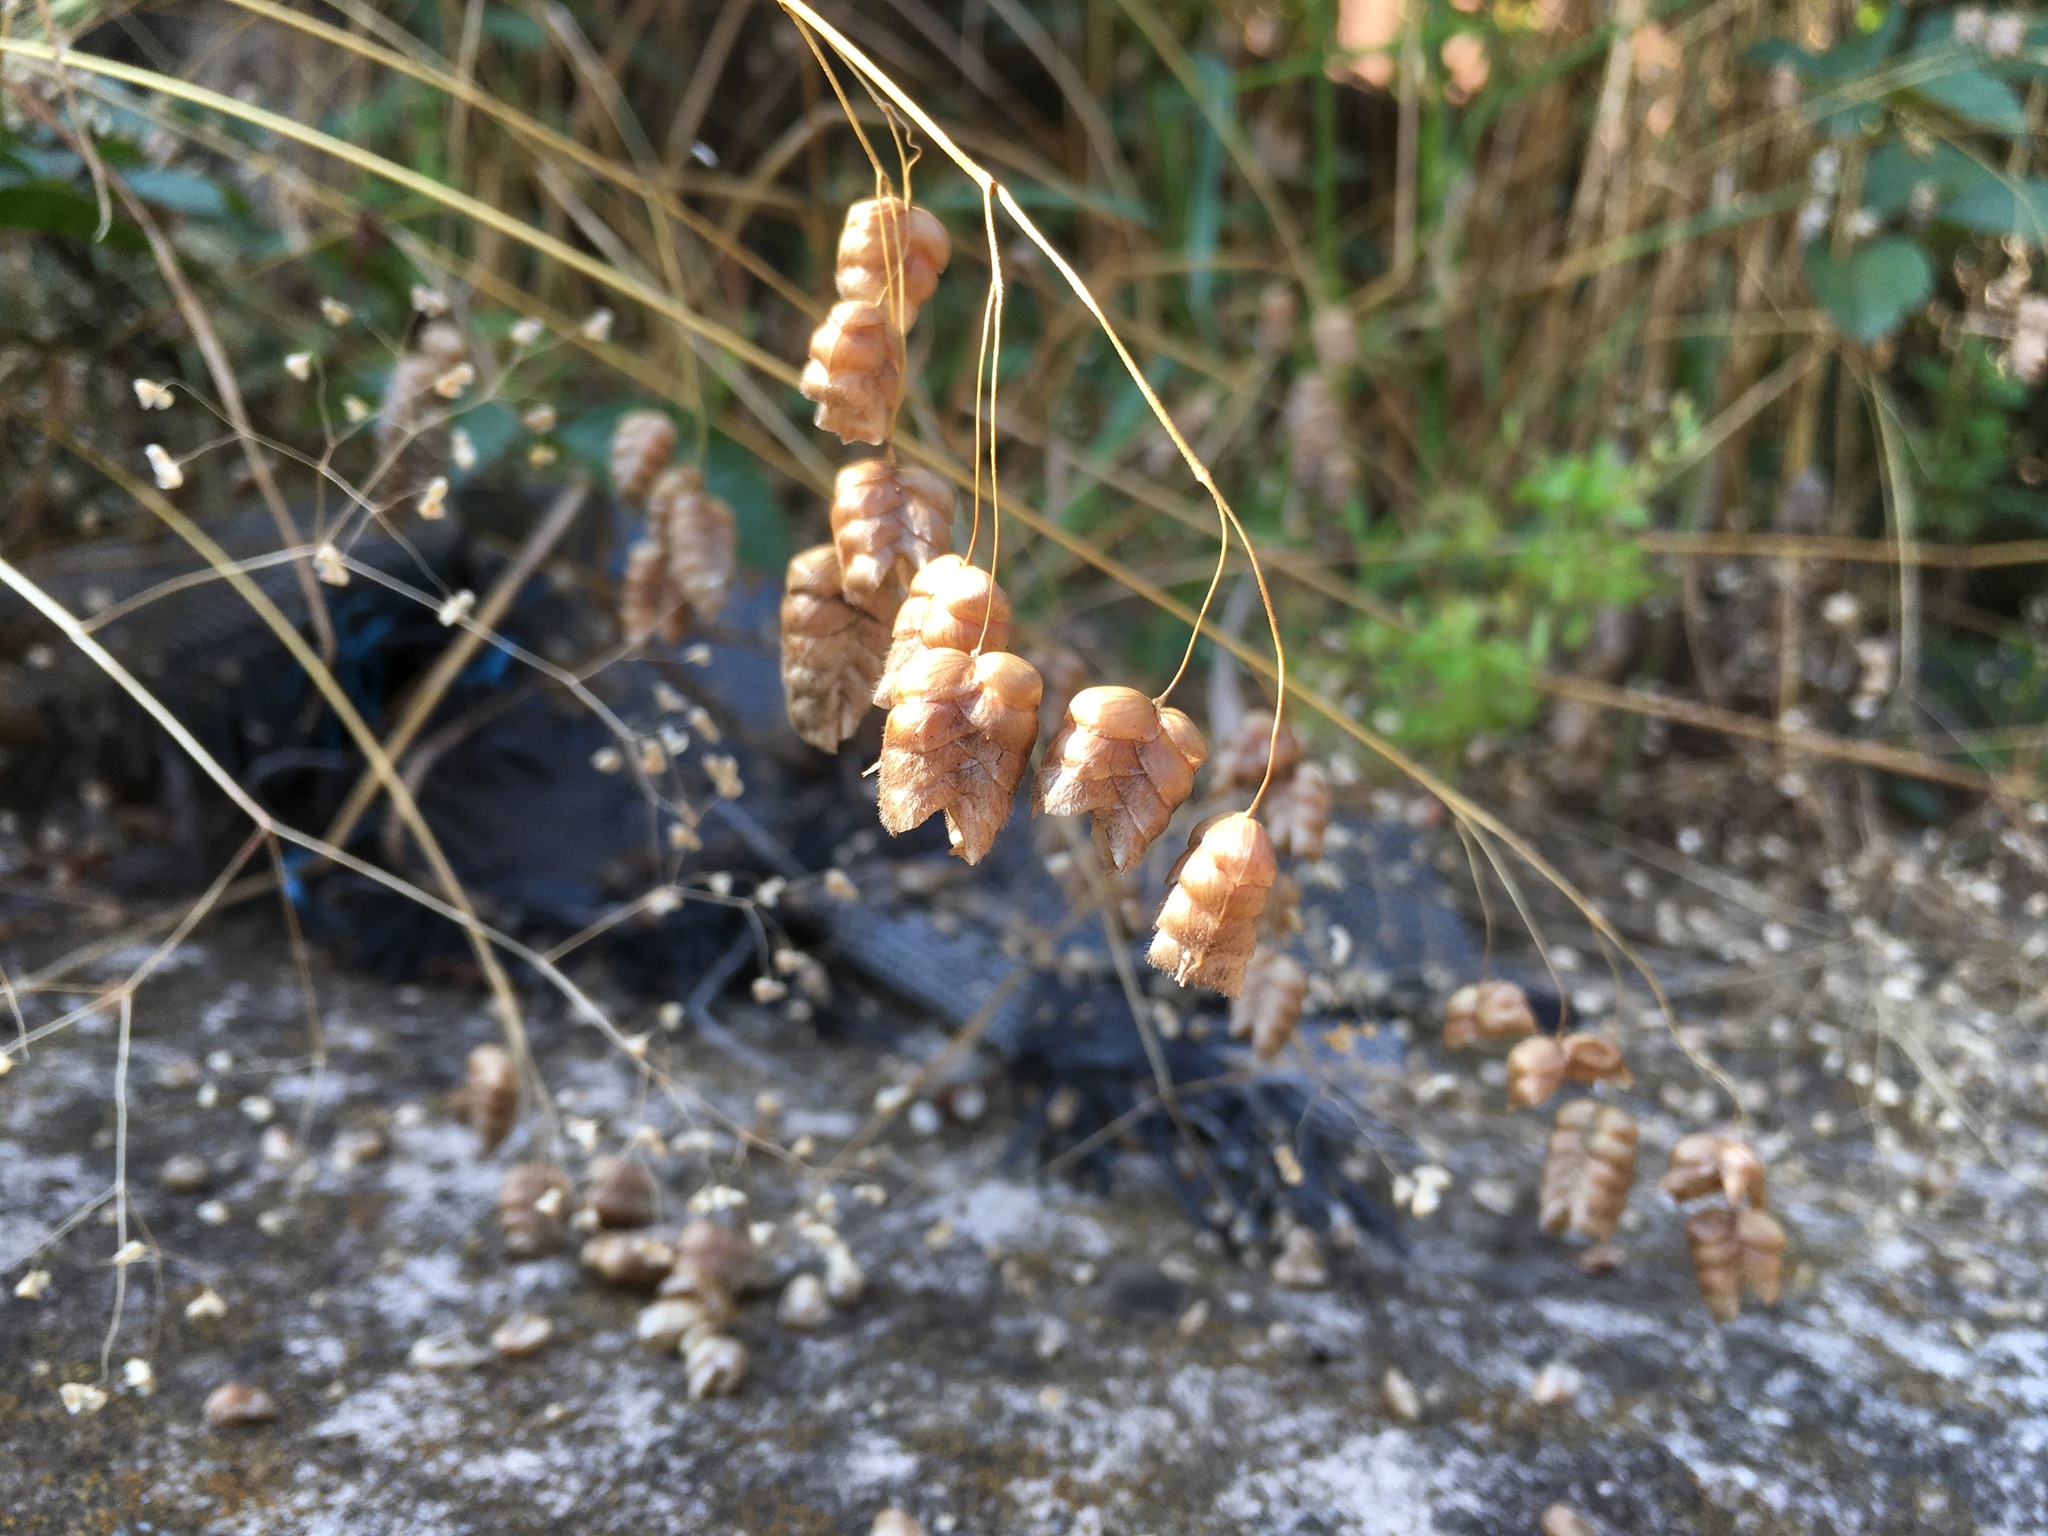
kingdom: Plantae
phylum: Tracheophyta
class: Liliopsida
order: Poales
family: Poaceae
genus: Briza
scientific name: Briza maxima
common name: Big quakinggrass
